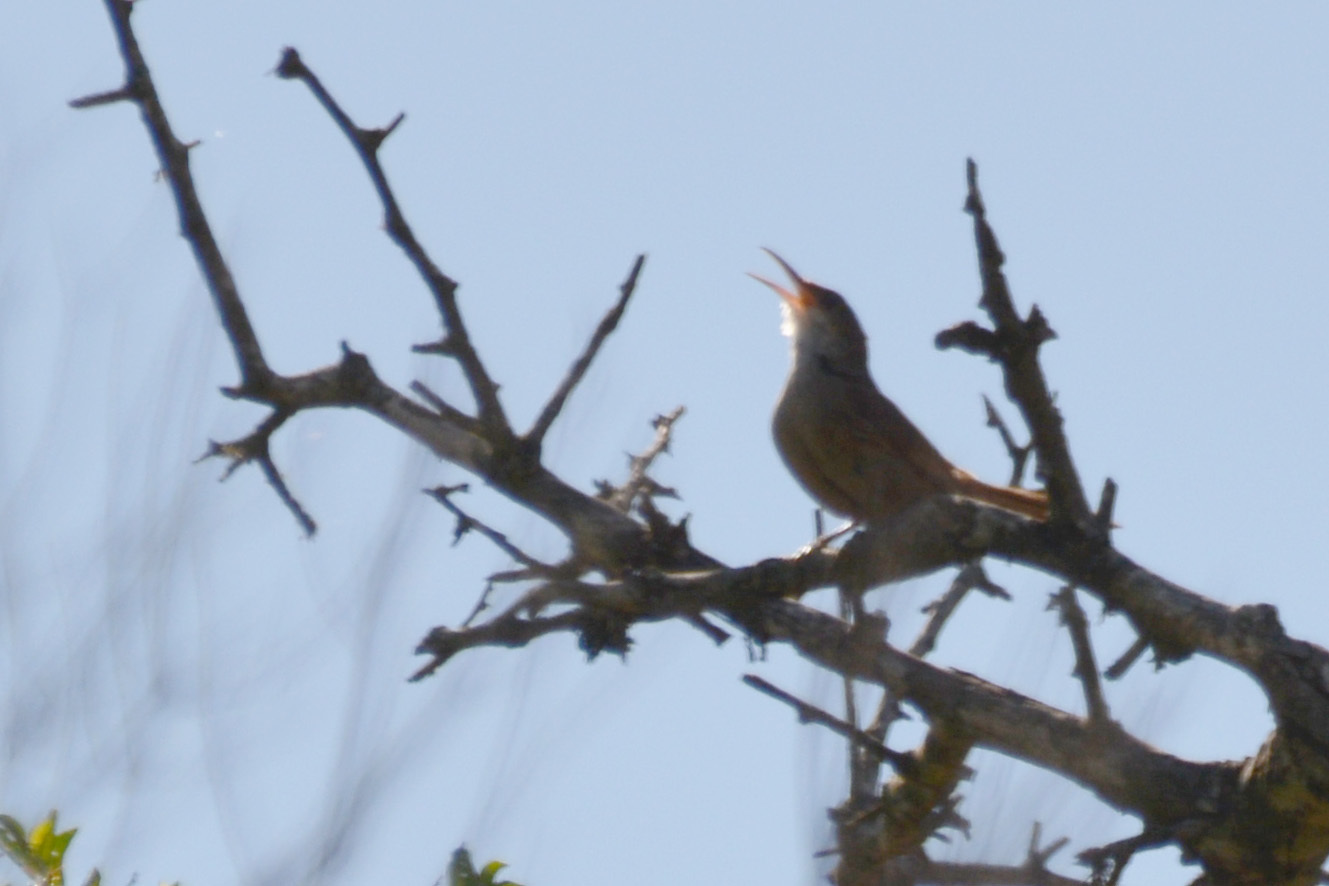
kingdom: Animalia
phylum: Chordata
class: Aves
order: Passeriformes
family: Furnariidae
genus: Upucerthia
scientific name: Upucerthia certhioides
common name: Chaco earthcreeper
